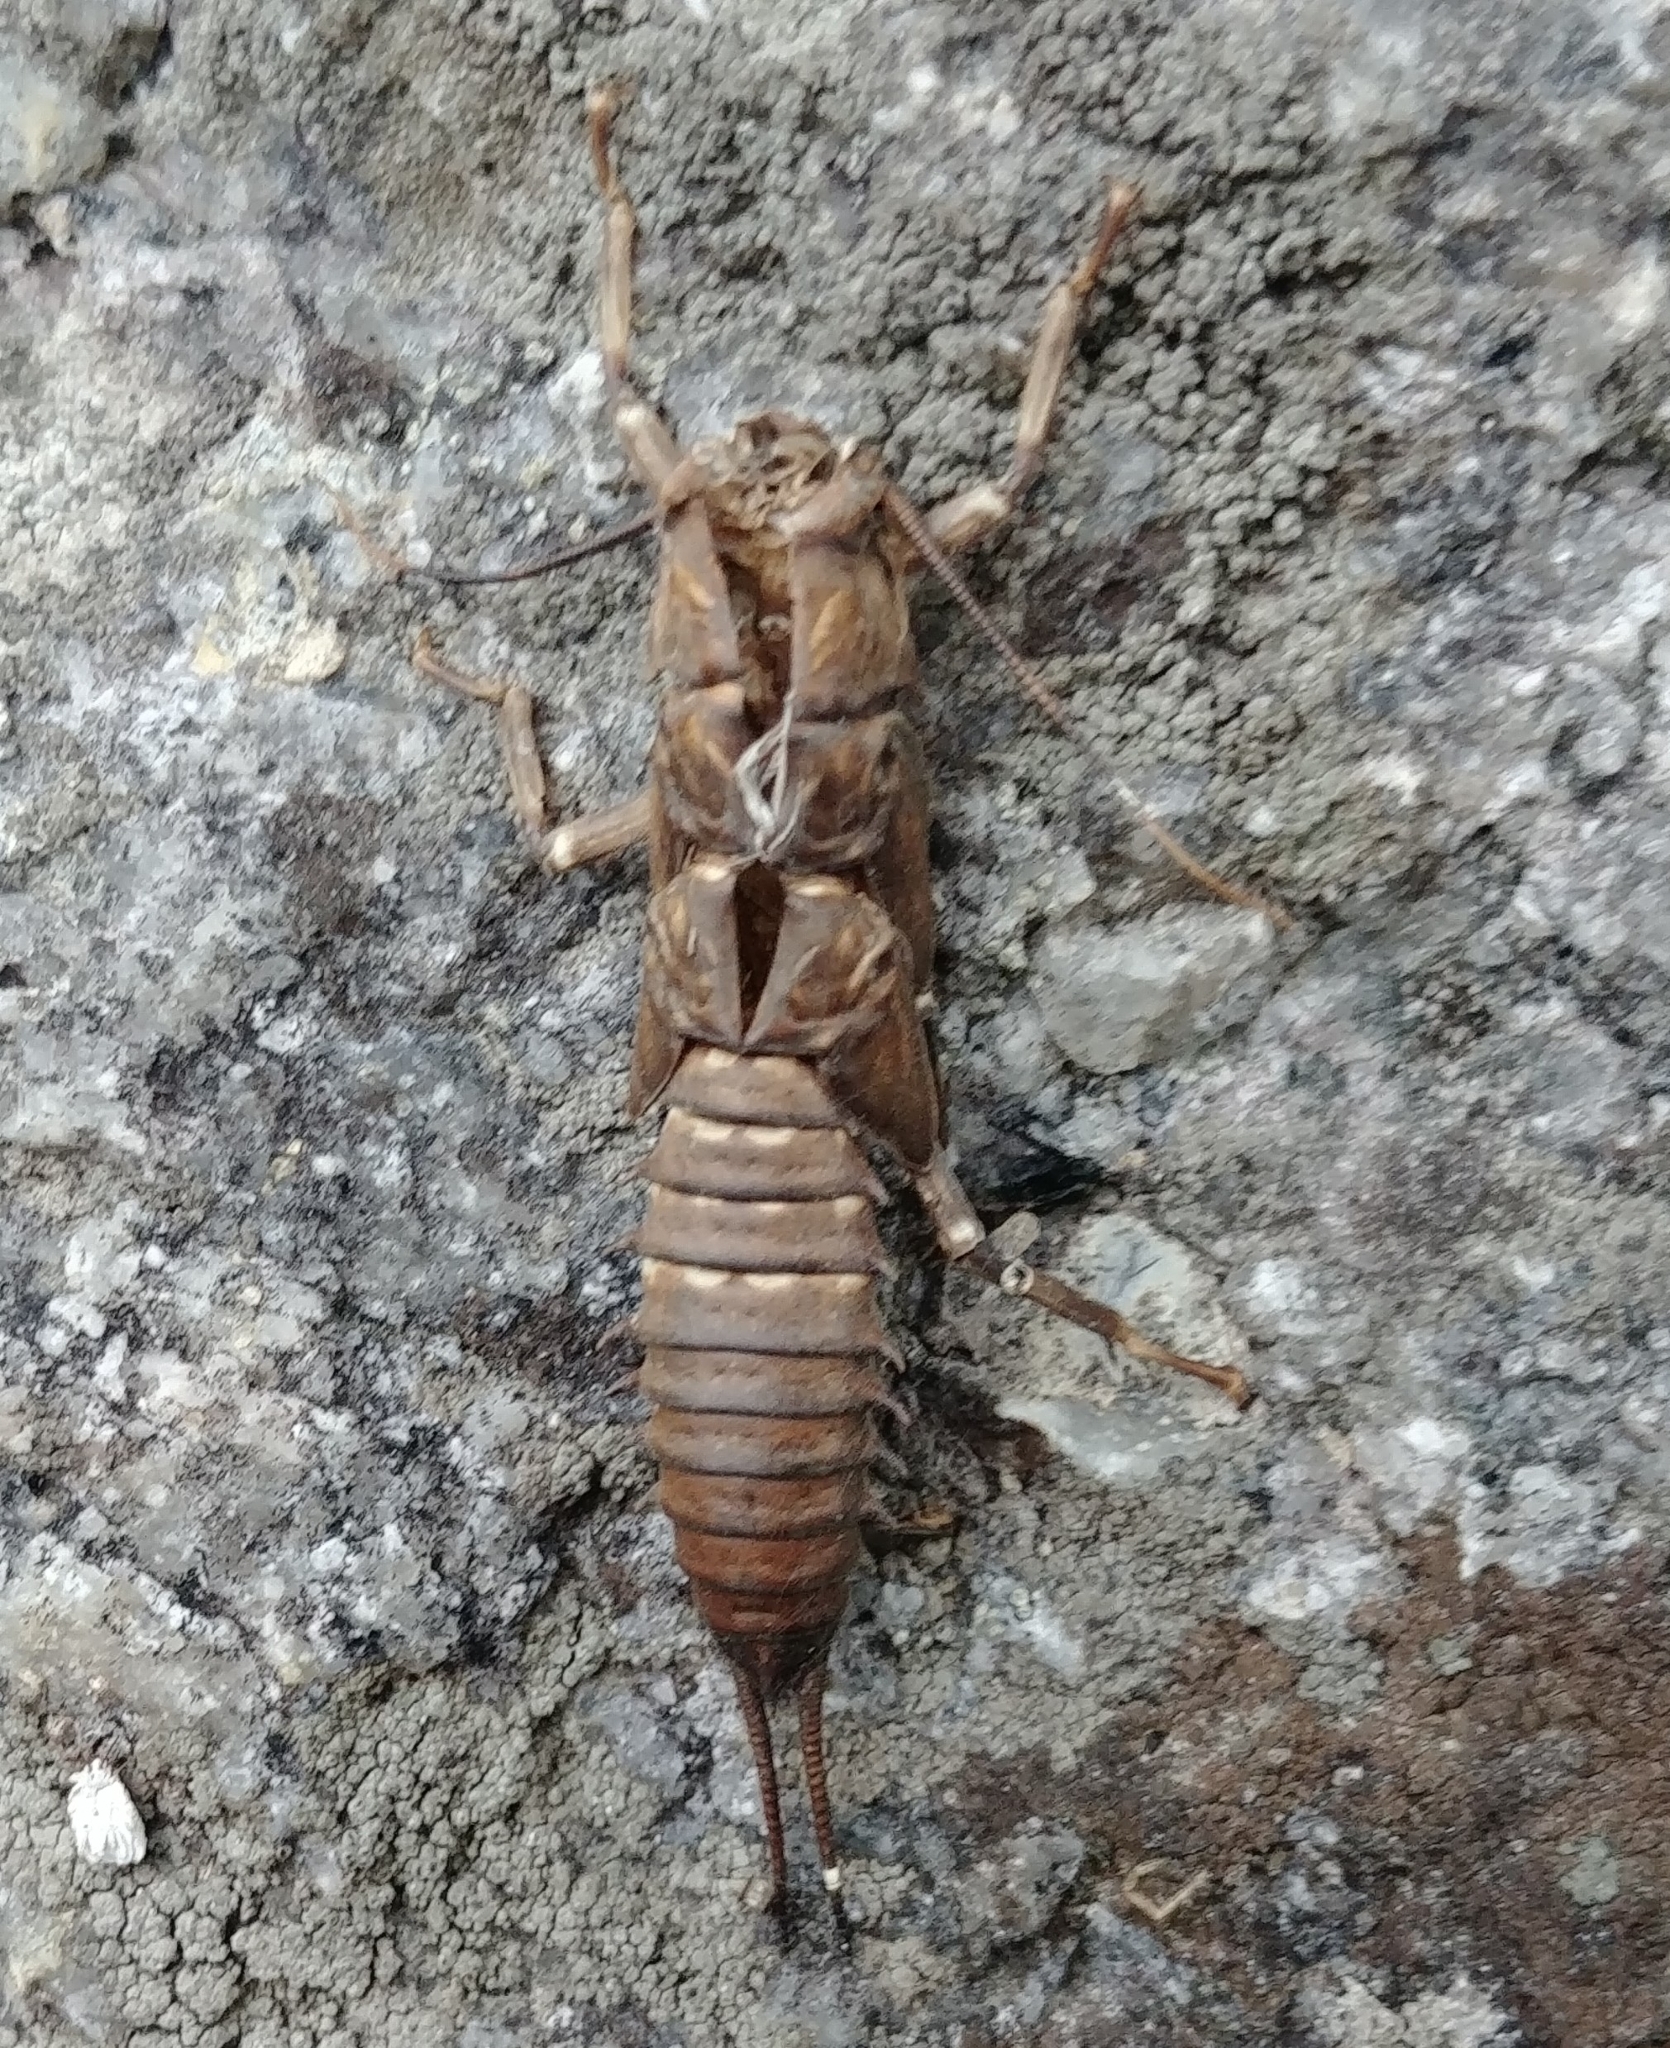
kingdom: Animalia
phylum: Arthropoda
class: Insecta
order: Plecoptera
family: Pteronarcyidae
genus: Pteronarcys
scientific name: Pteronarcys biloba
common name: Knobbed salmonfly
